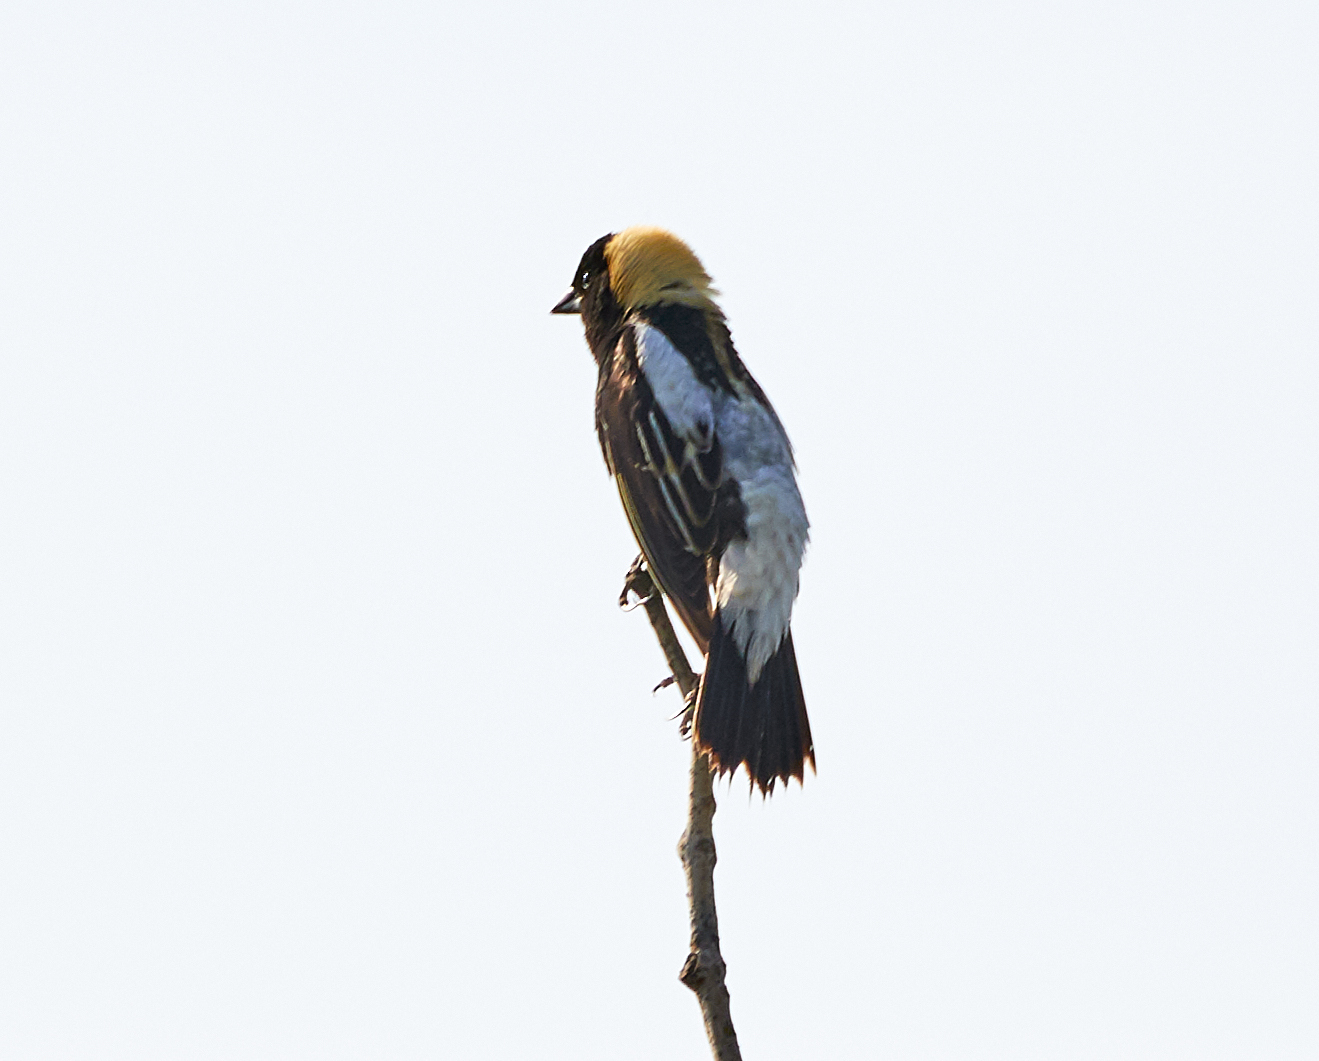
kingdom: Animalia
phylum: Chordata
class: Aves
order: Passeriformes
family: Icteridae
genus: Dolichonyx
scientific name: Dolichonyx oryzivorus
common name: Bobolink
